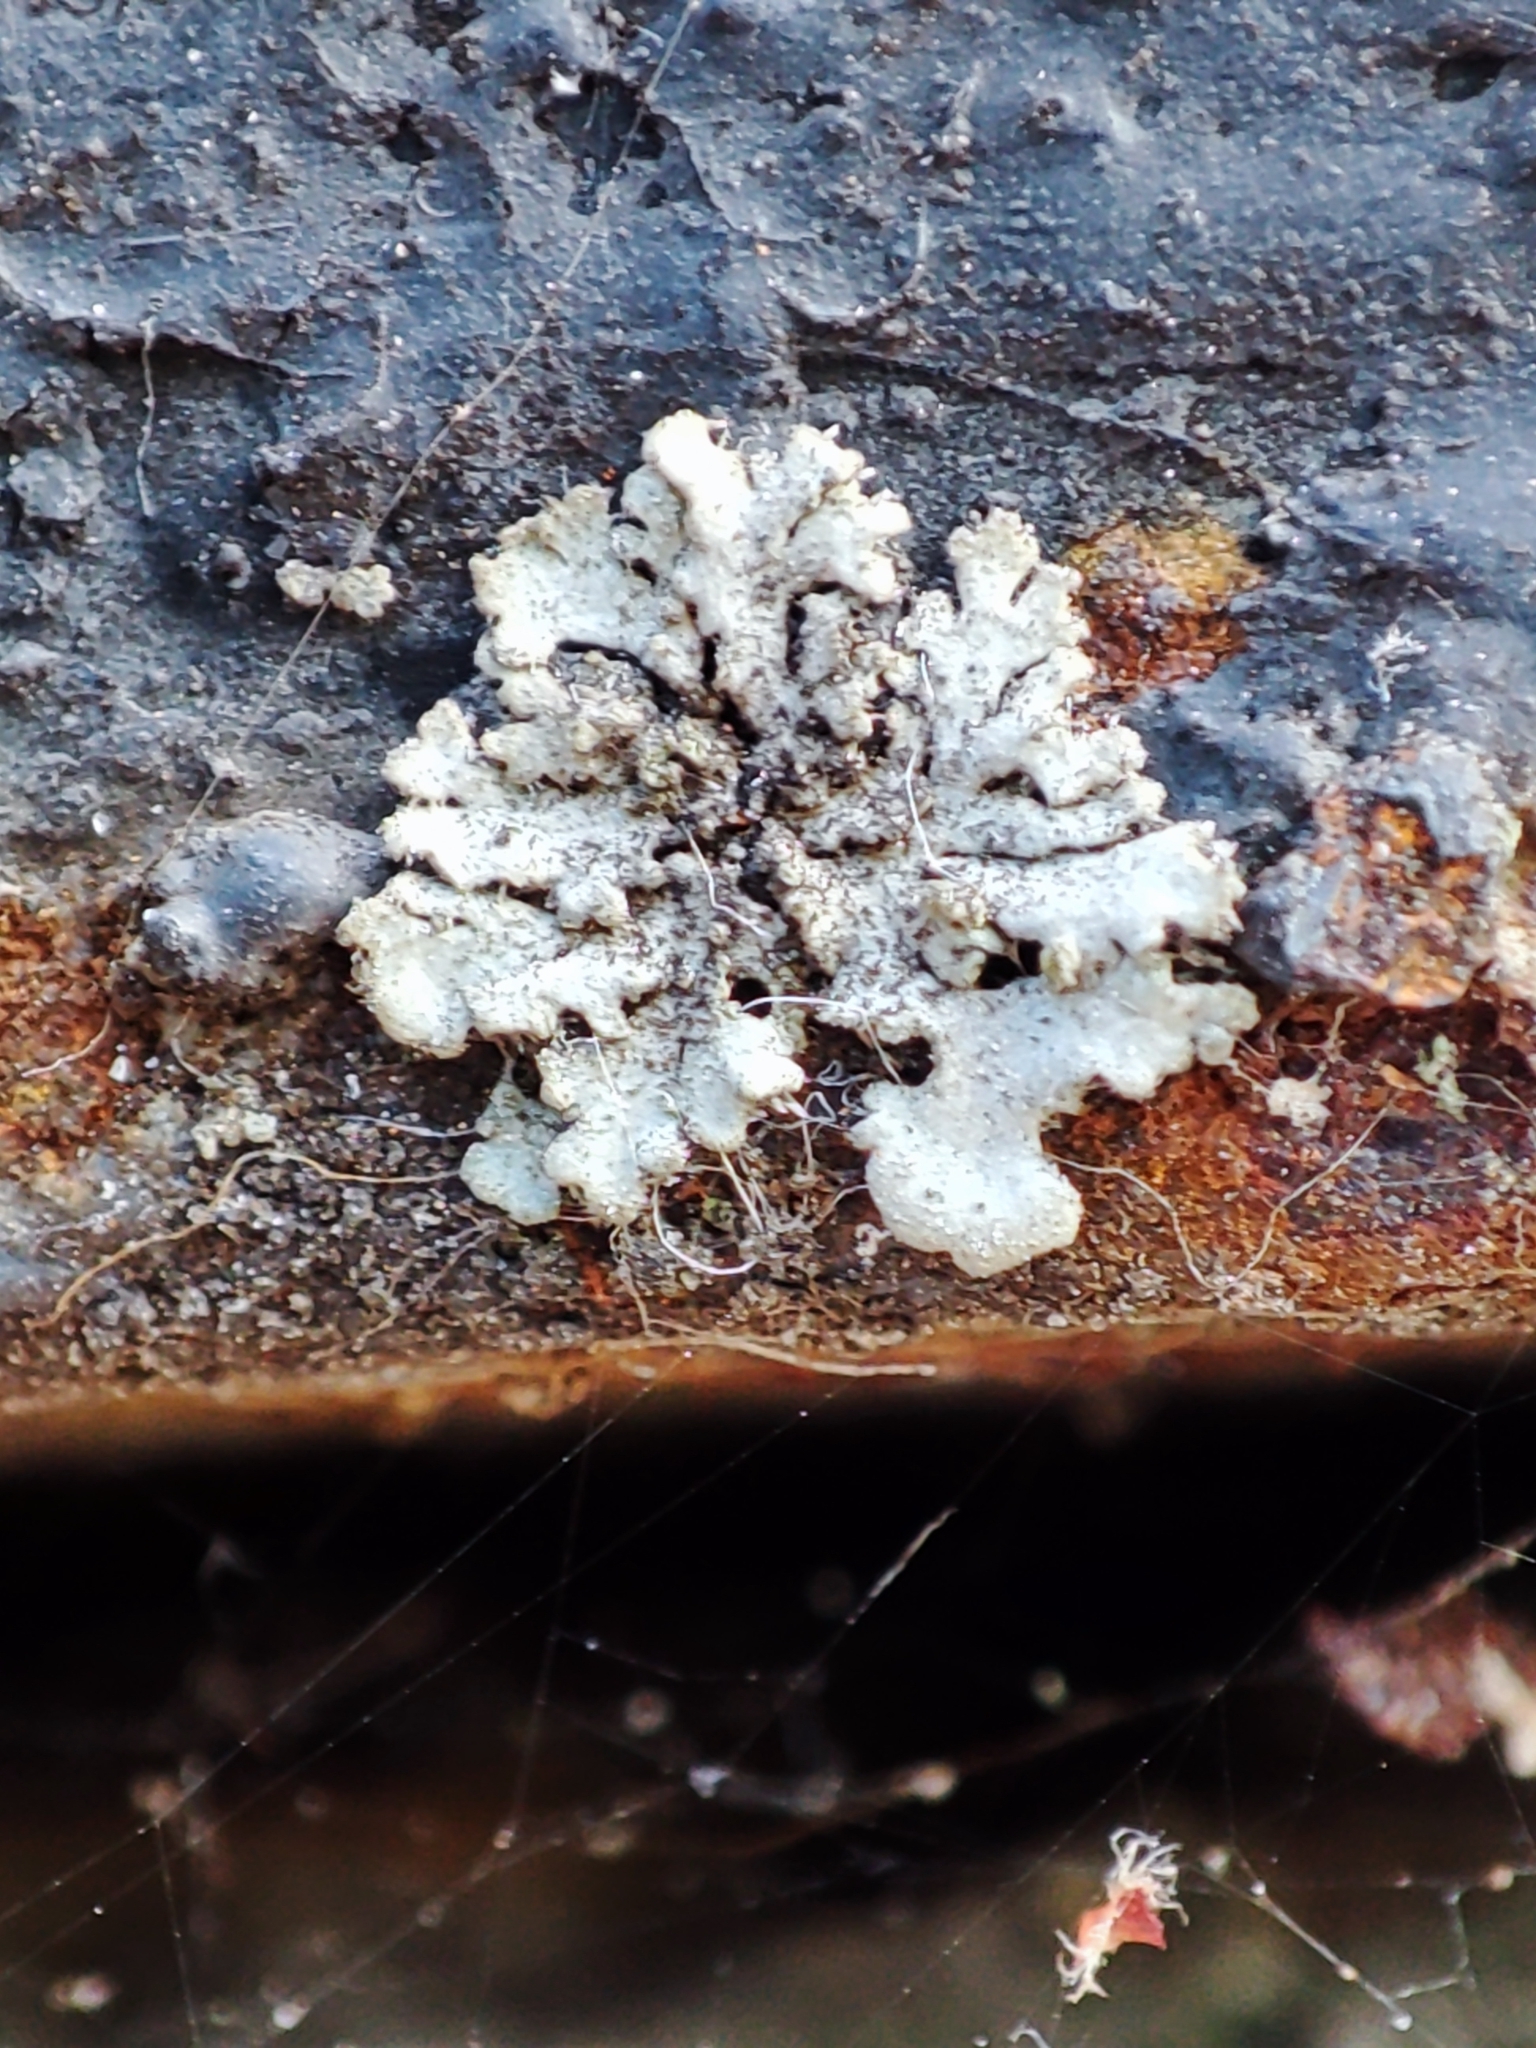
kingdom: Fungi
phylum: Ascomycota
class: Lecanoromycetes
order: Caliciales
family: Physciaceae
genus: Phaeophyscia
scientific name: Phaeophyscia orbicularis
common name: Mealy shadow lichen
